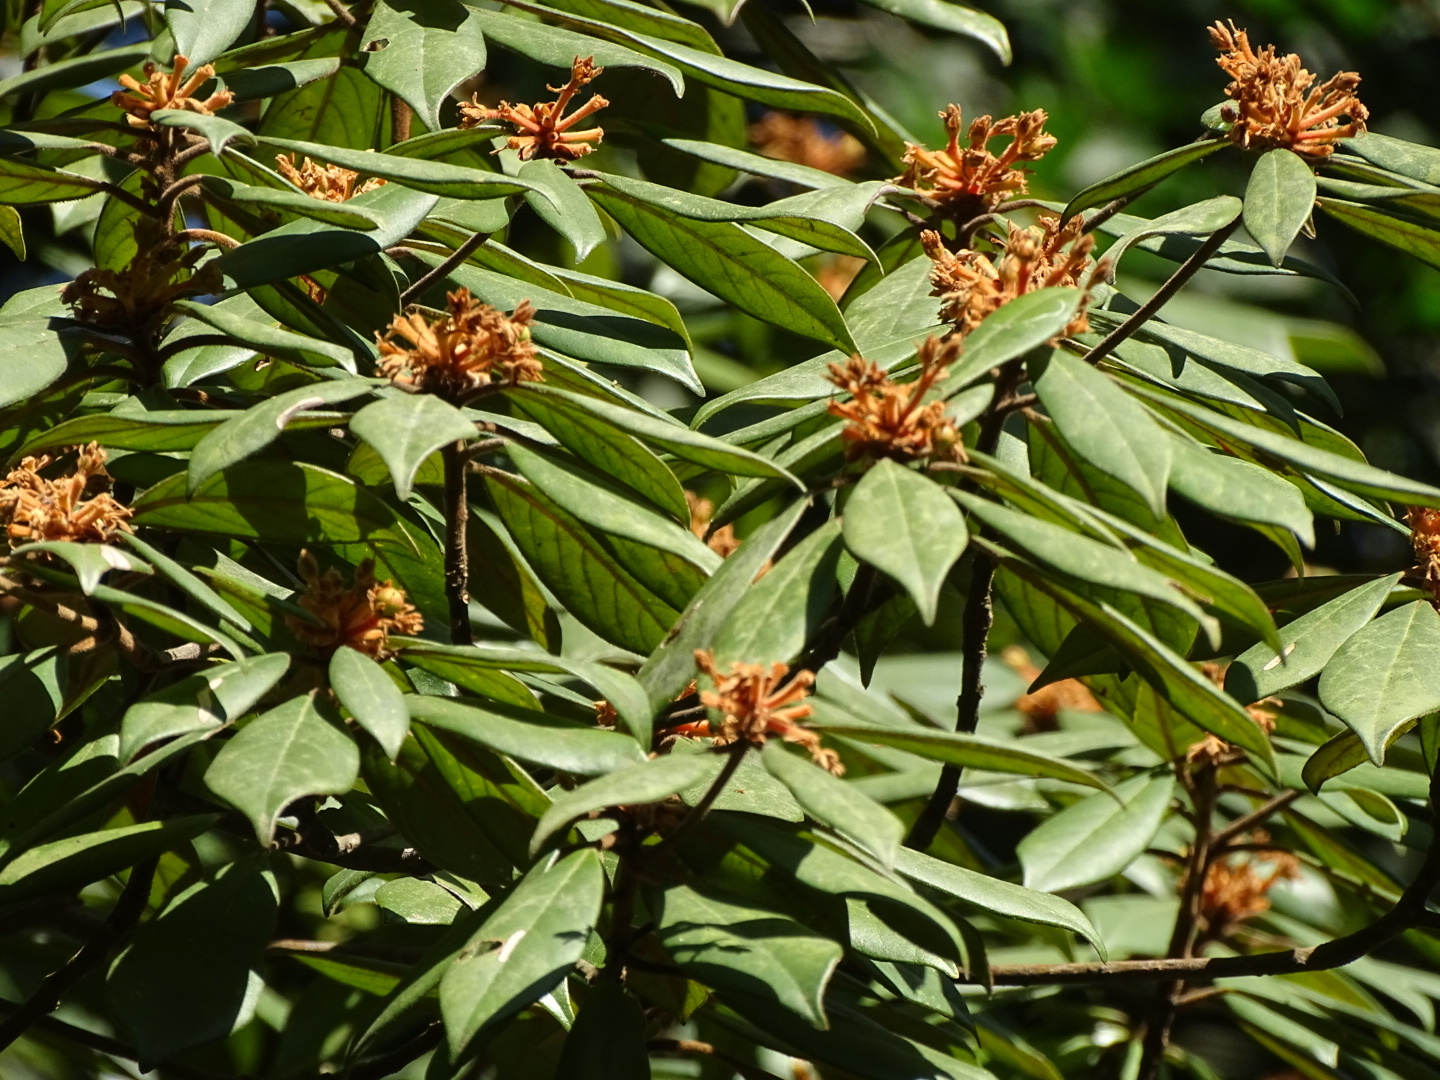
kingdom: Plantae
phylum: Tracheophyta
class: Magnoliopsida
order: Laurales
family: Lauraceae
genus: Machilus
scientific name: Machilus velutina
